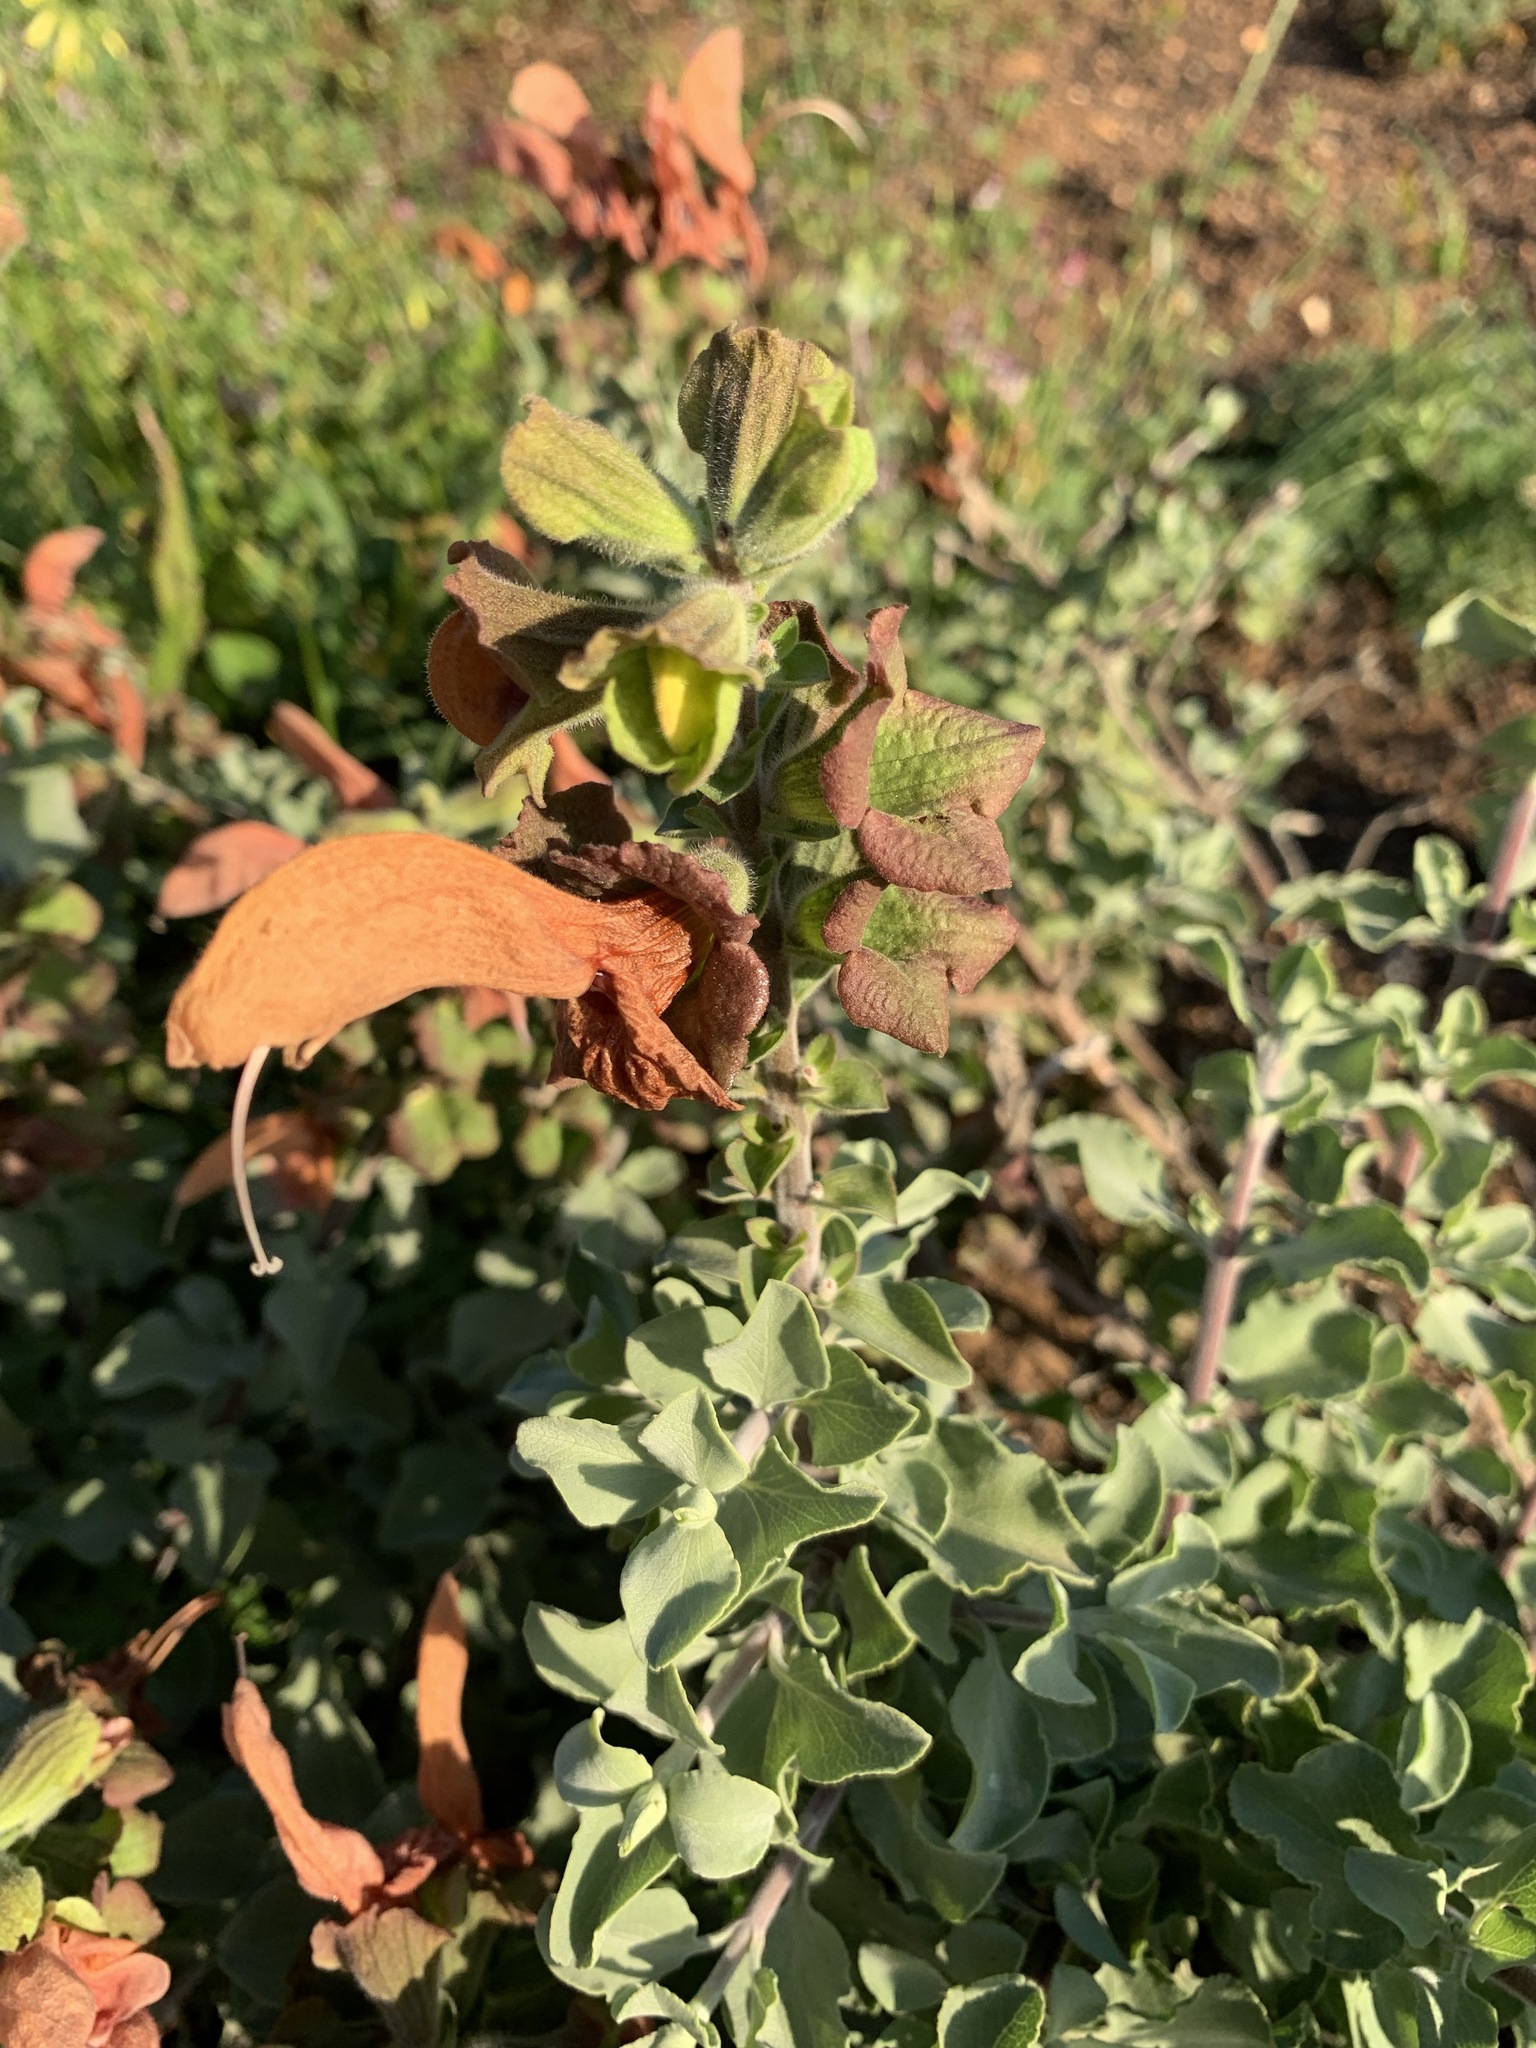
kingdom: Plantae
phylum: Tracheophyta
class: Magnoliopsida
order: Lamiales
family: Lamiaceae
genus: Salvia
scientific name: Salvia aurea
